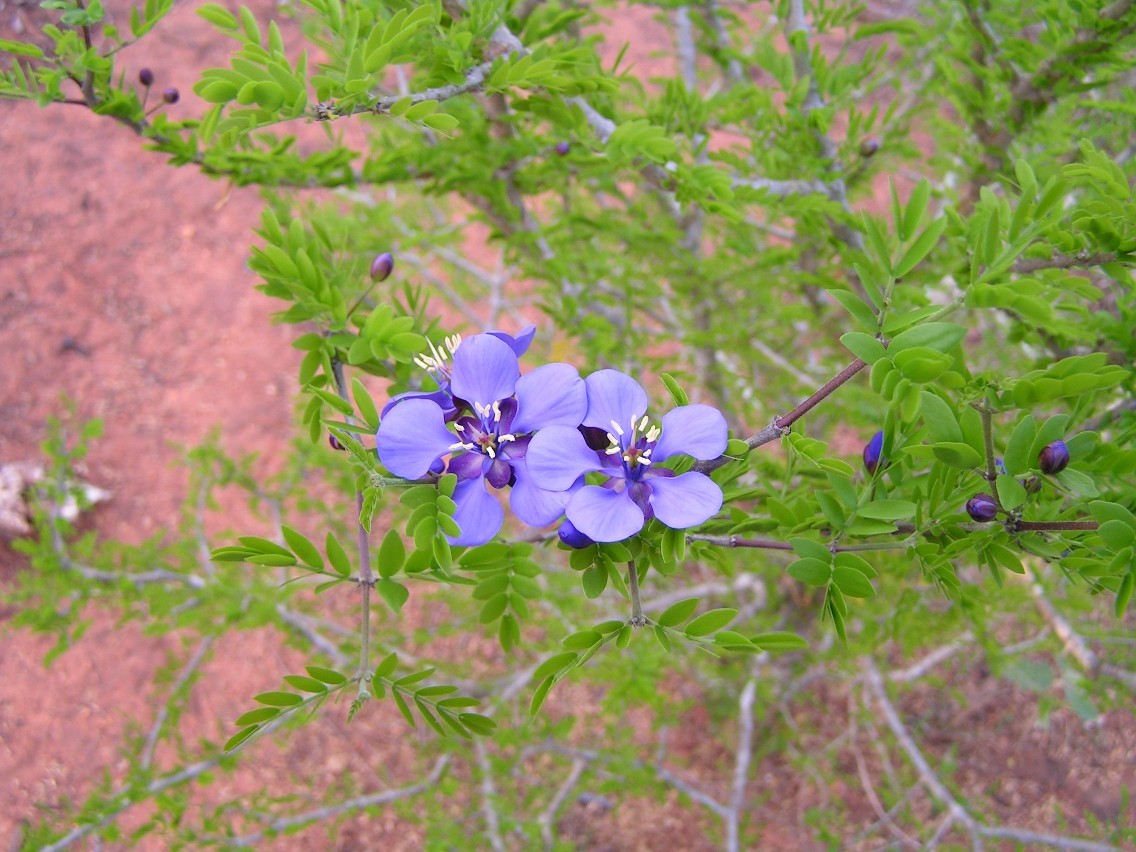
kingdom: Plantae
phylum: Tracheophyta
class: Magnoliopsida
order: Zygophyllales
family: Zygophyllaceae
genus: Guaiacum
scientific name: Guaiacum coulteri
